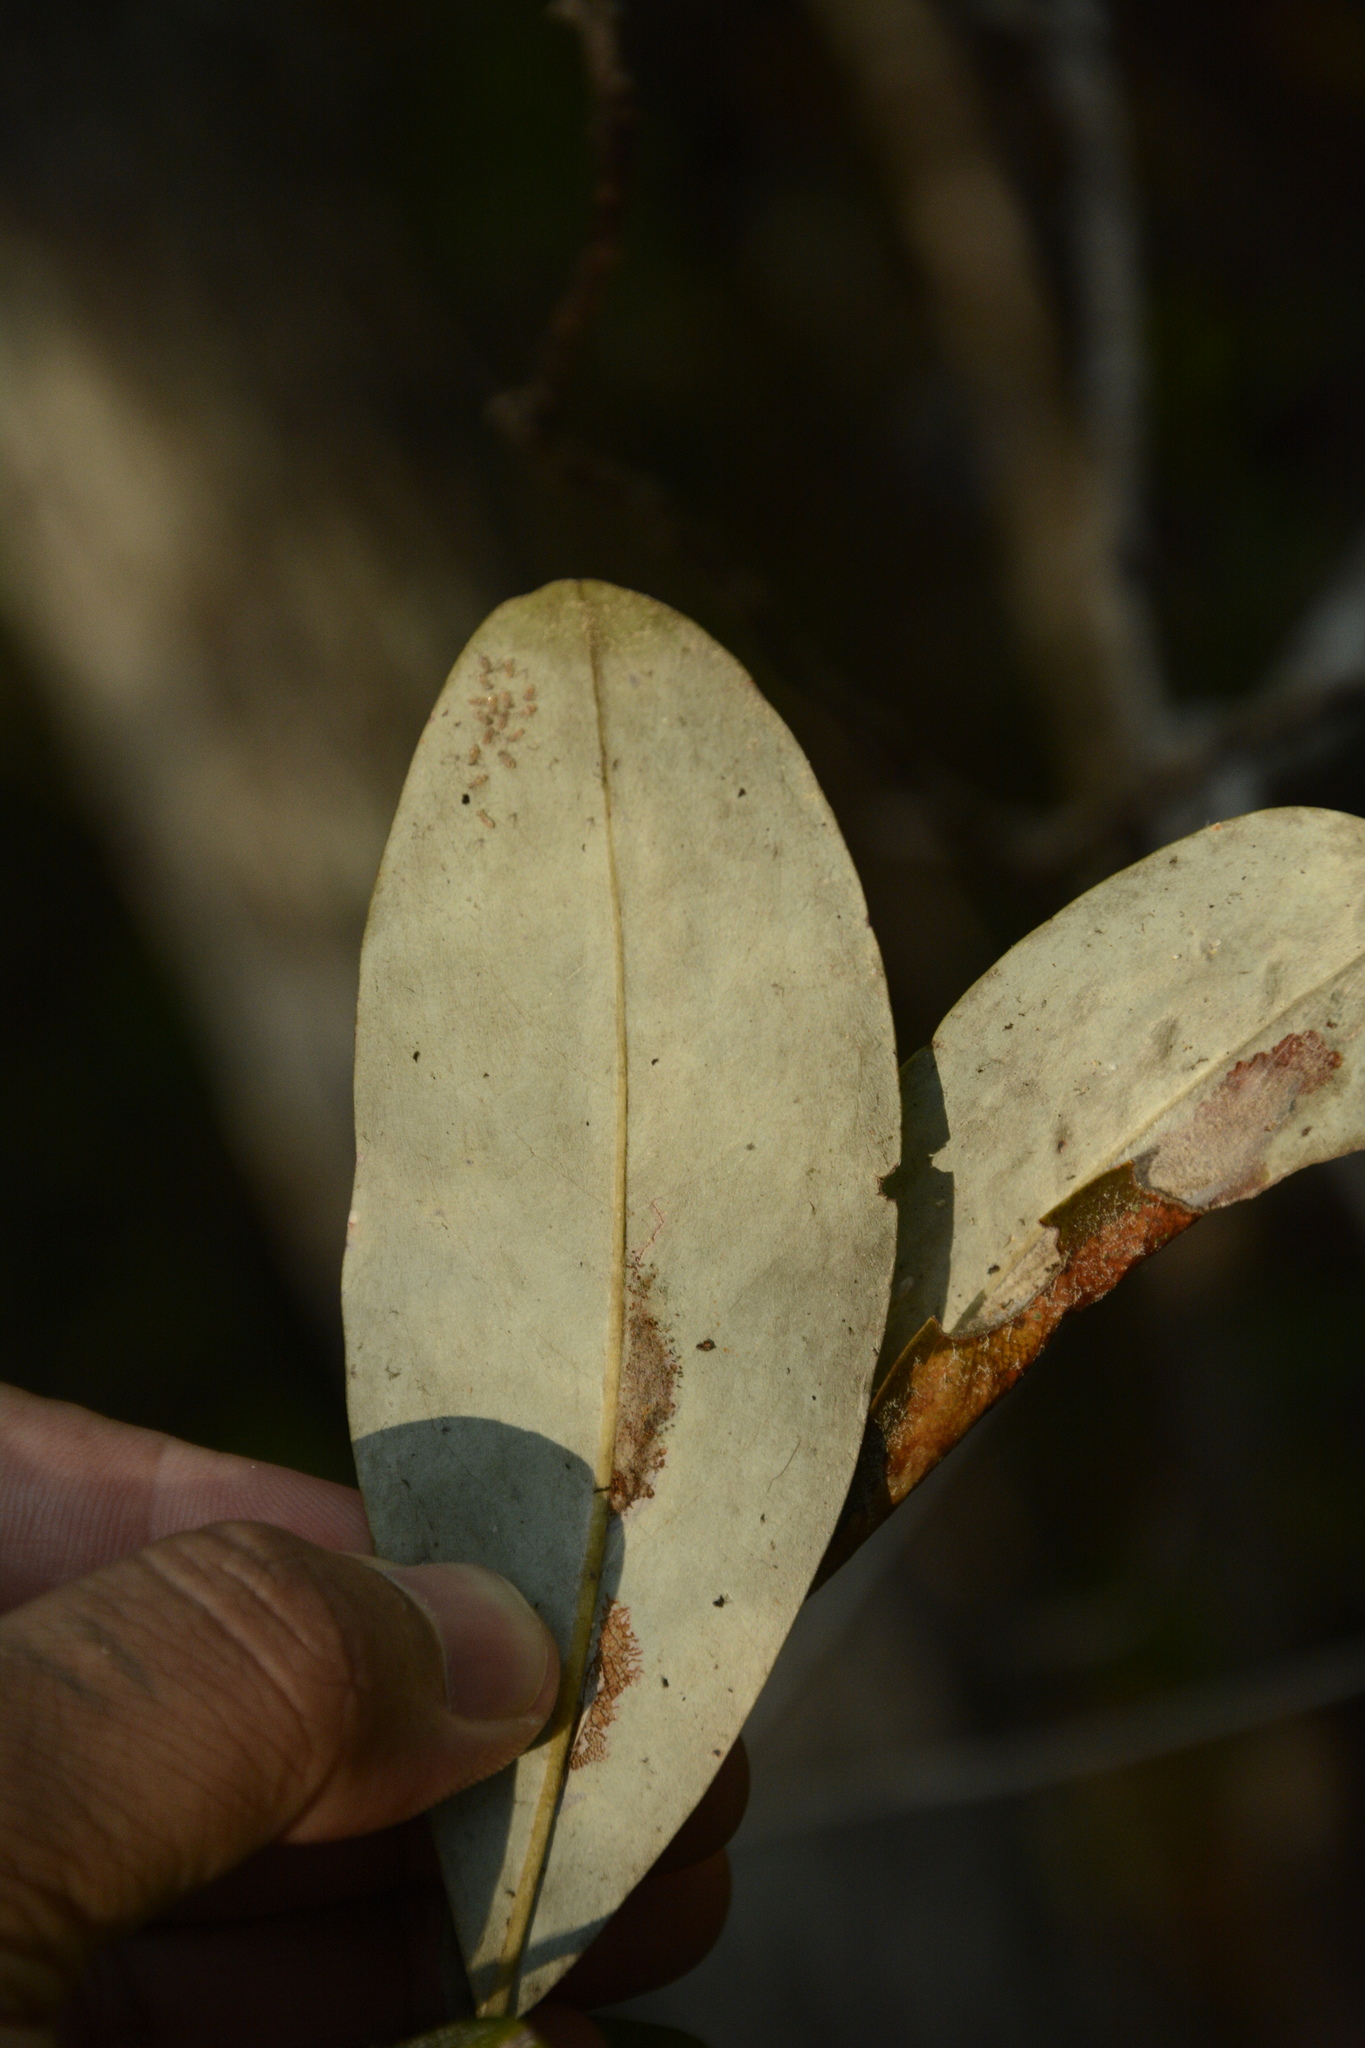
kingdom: Plantae
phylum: Tracheophyta
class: Magnoliopsida
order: Magnoliales
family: Magnoliaceae
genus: Magnolia
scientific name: Magnolia virginiana
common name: Swamp bay
